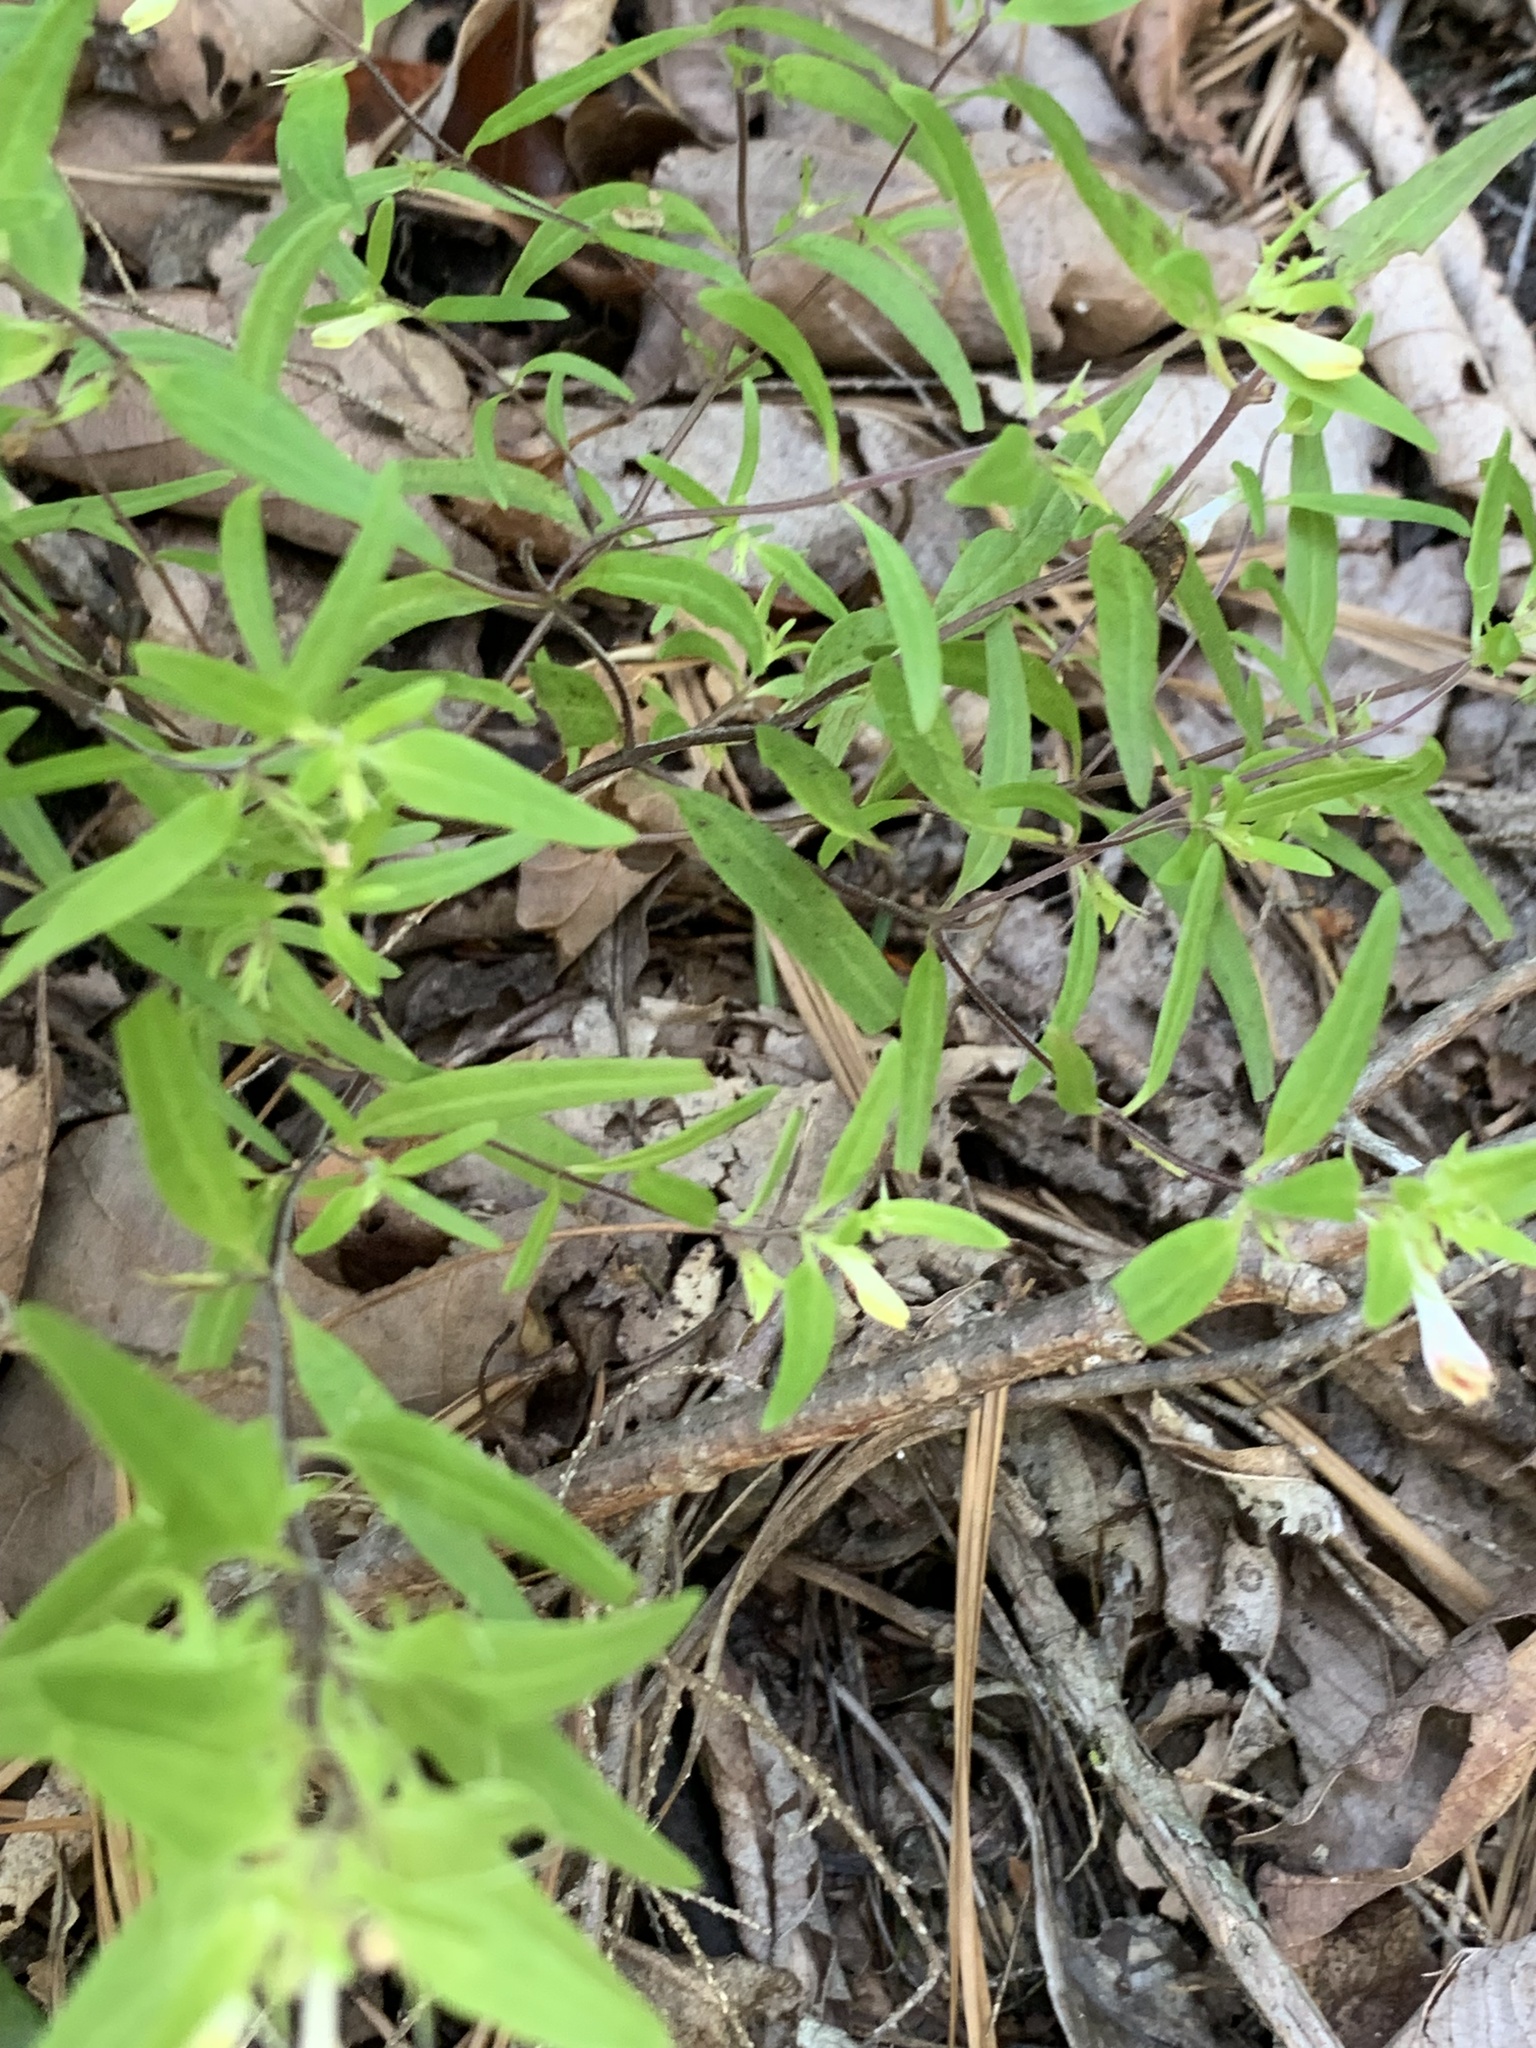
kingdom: Plantae
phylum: Tracheophyta
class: Magnoliopsida
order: Lamiales
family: Orobanchaceae
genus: Melampyrum
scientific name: Melampyrum lineare
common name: American cow-wheat
